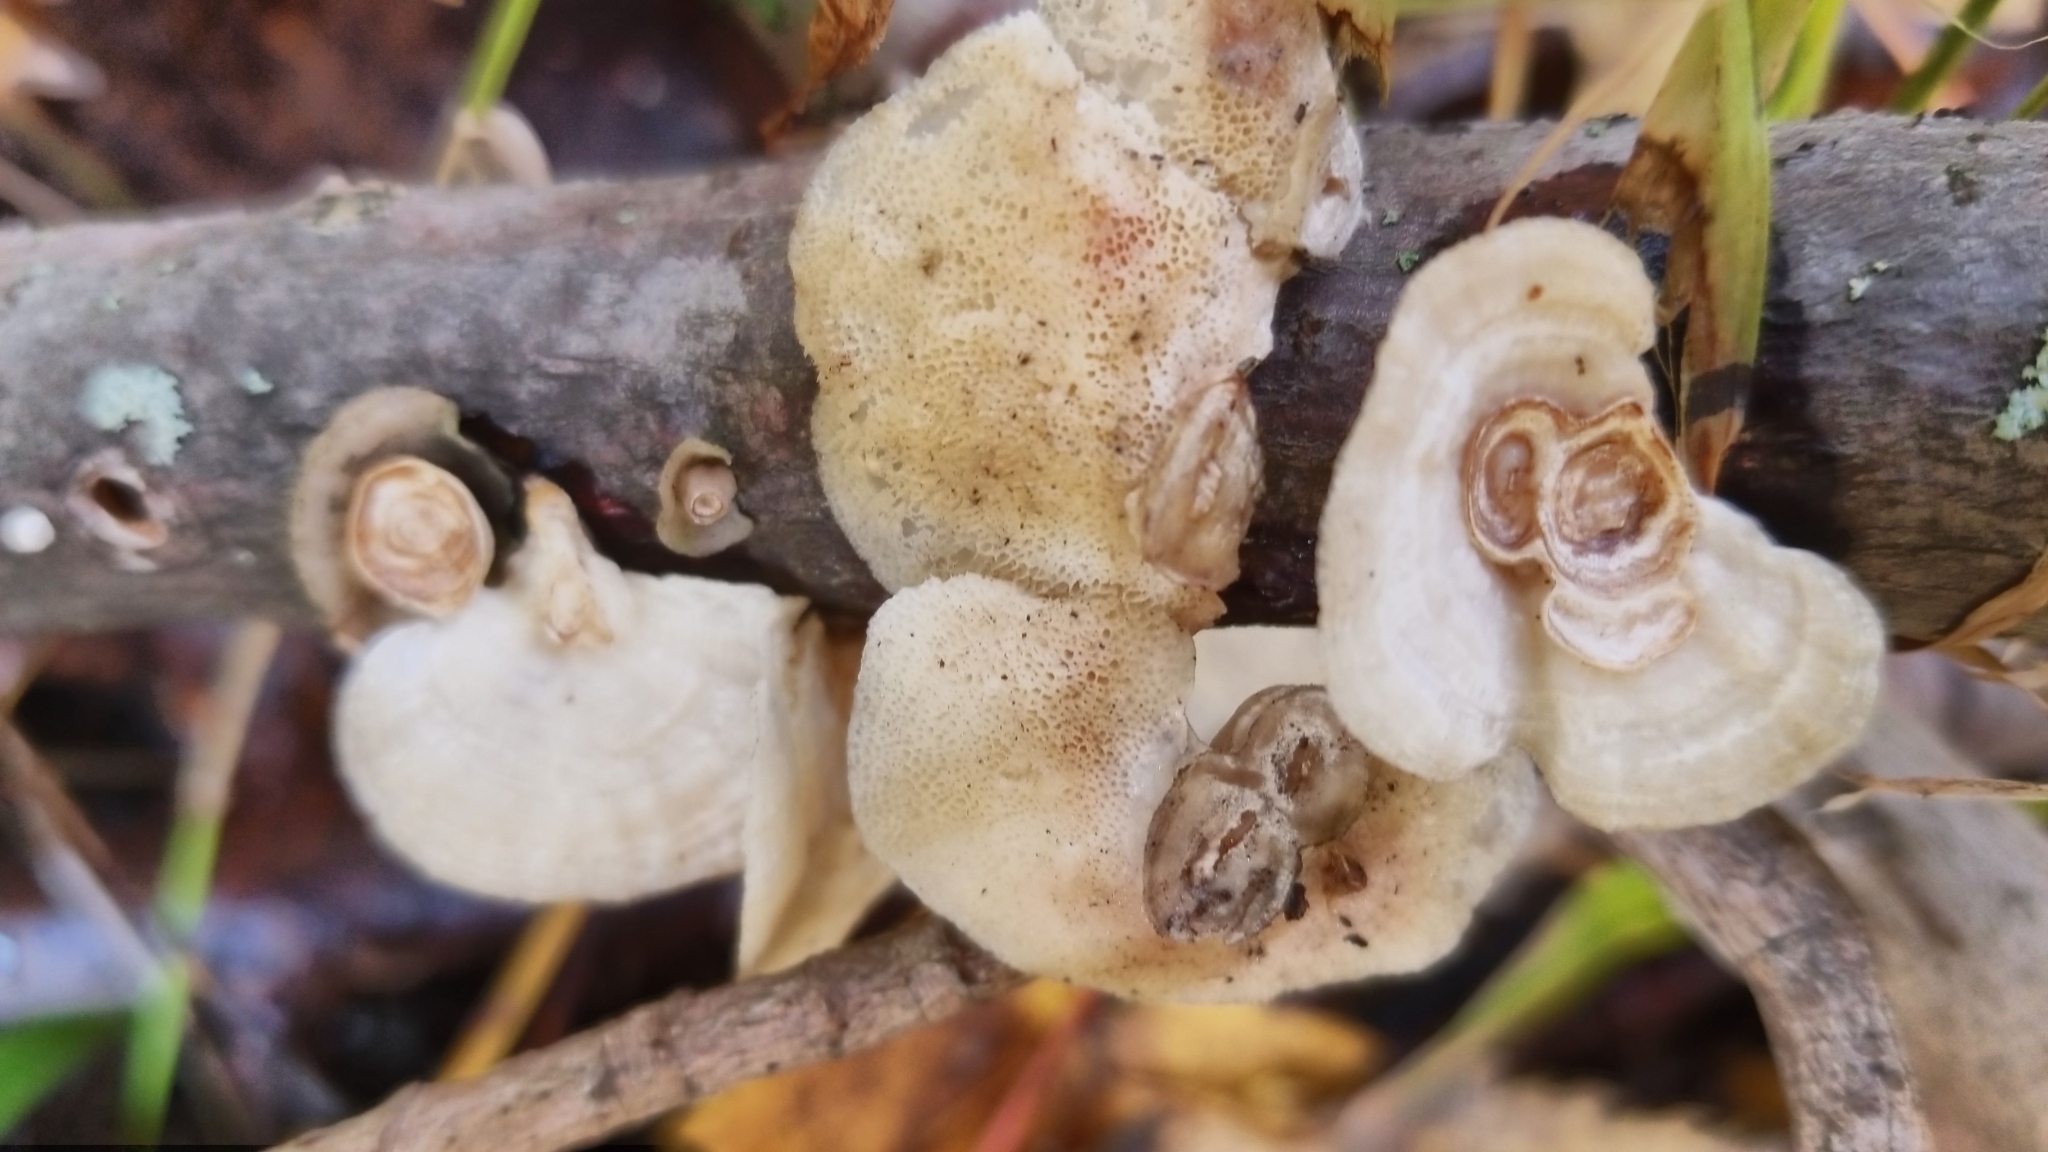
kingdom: Fungi
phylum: Basidiomycota
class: Agaricomycetes
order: Polyporales
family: Polyporaceae
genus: Poronidulus
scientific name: Poronidulus conchifer
